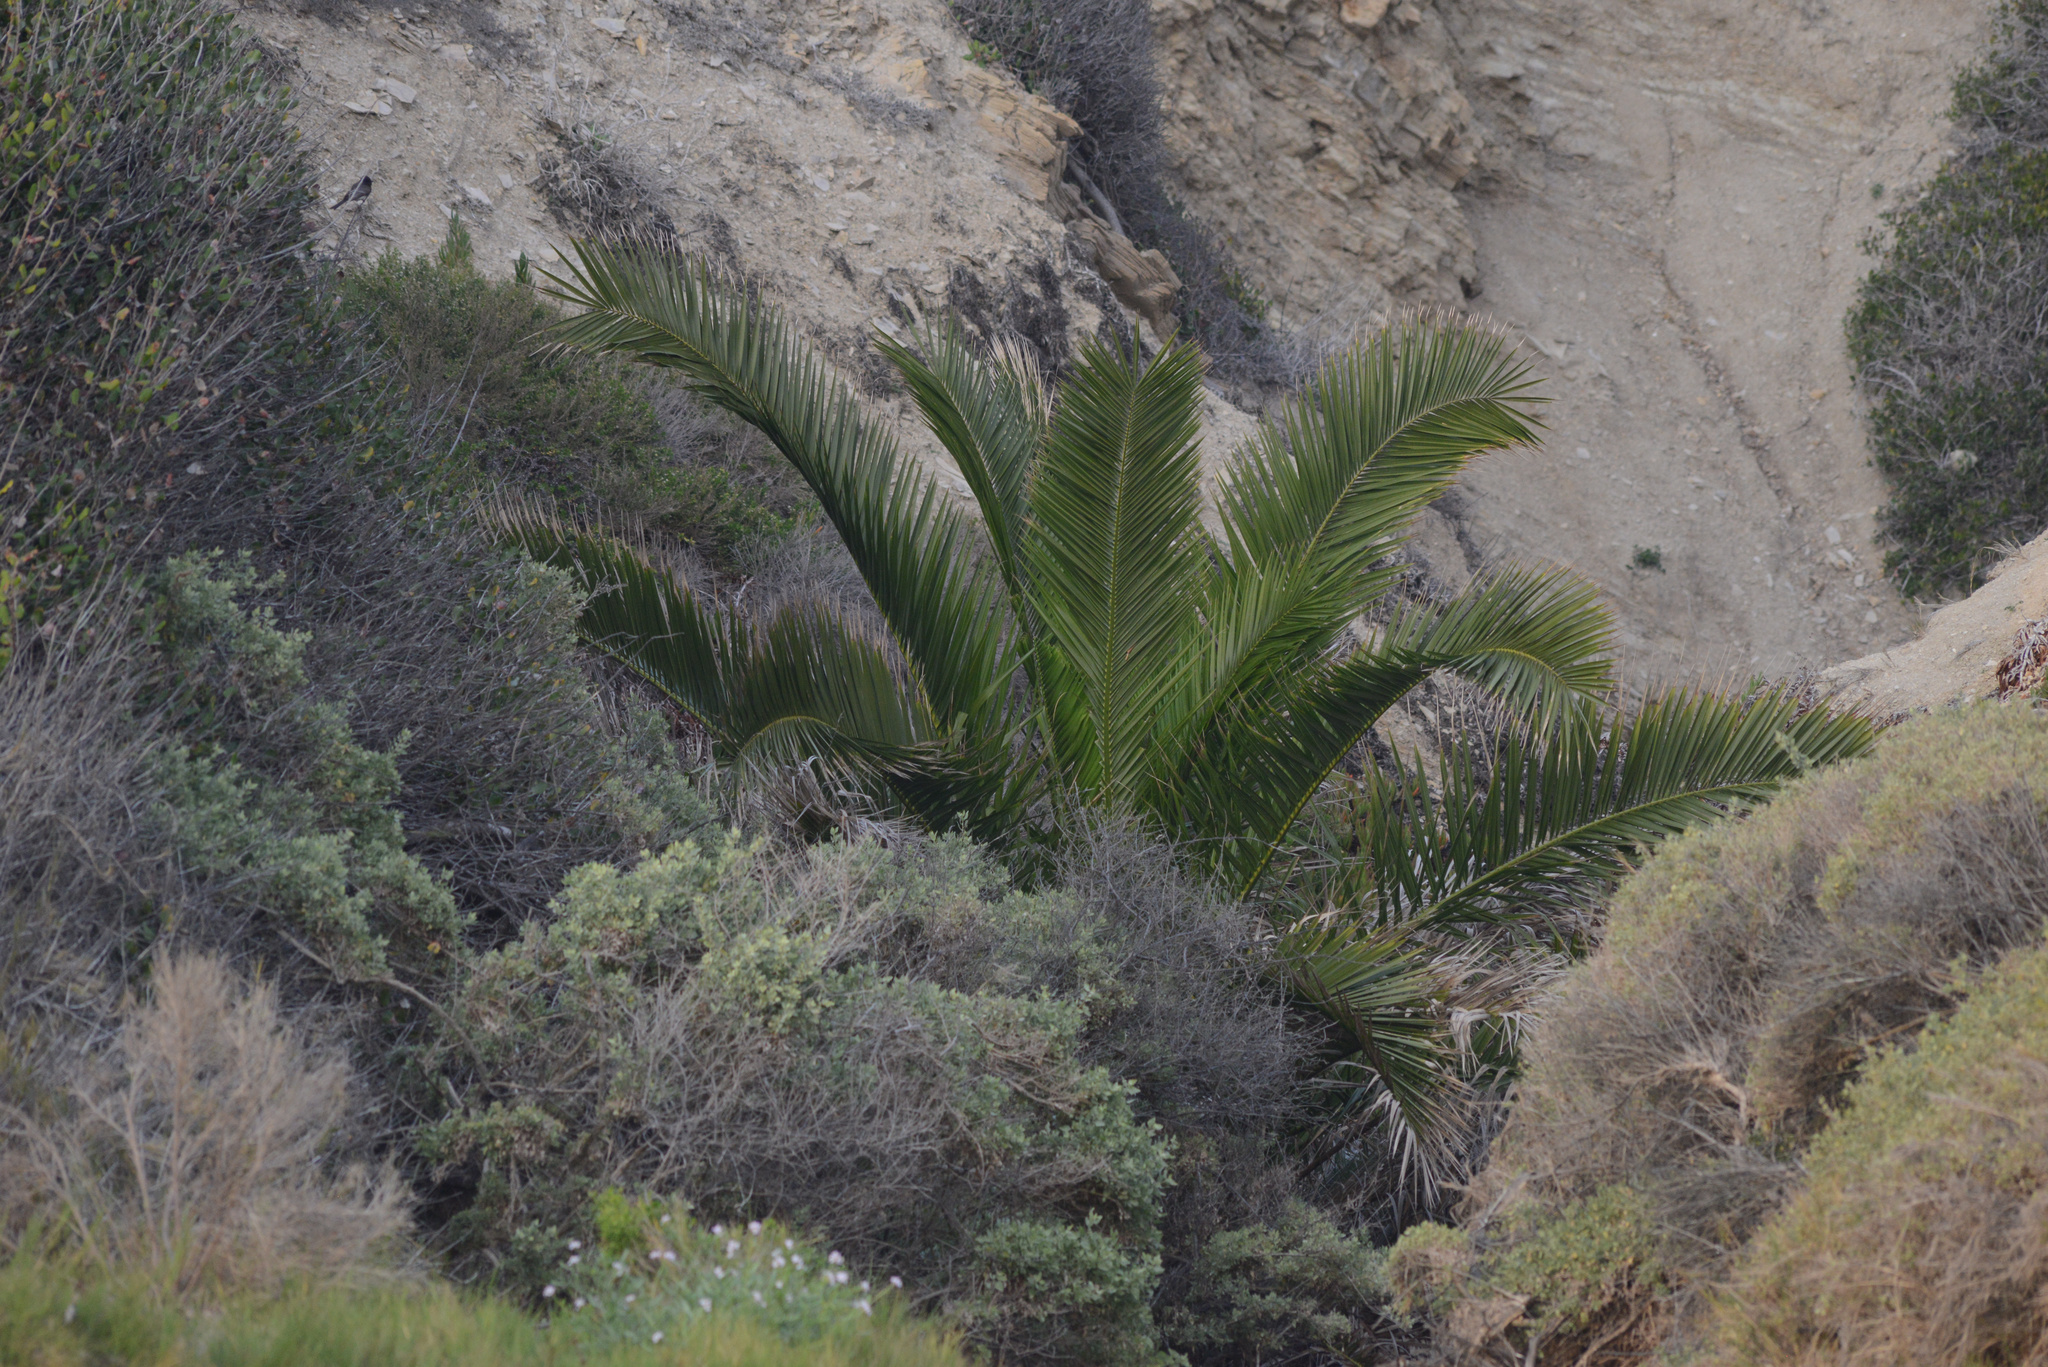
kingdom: Plantae
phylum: Tracheophyta
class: Liliopsida
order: Arecales
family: Arecaceae
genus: Phoenix
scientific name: Phoenix canariensis
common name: Canary island date palm
